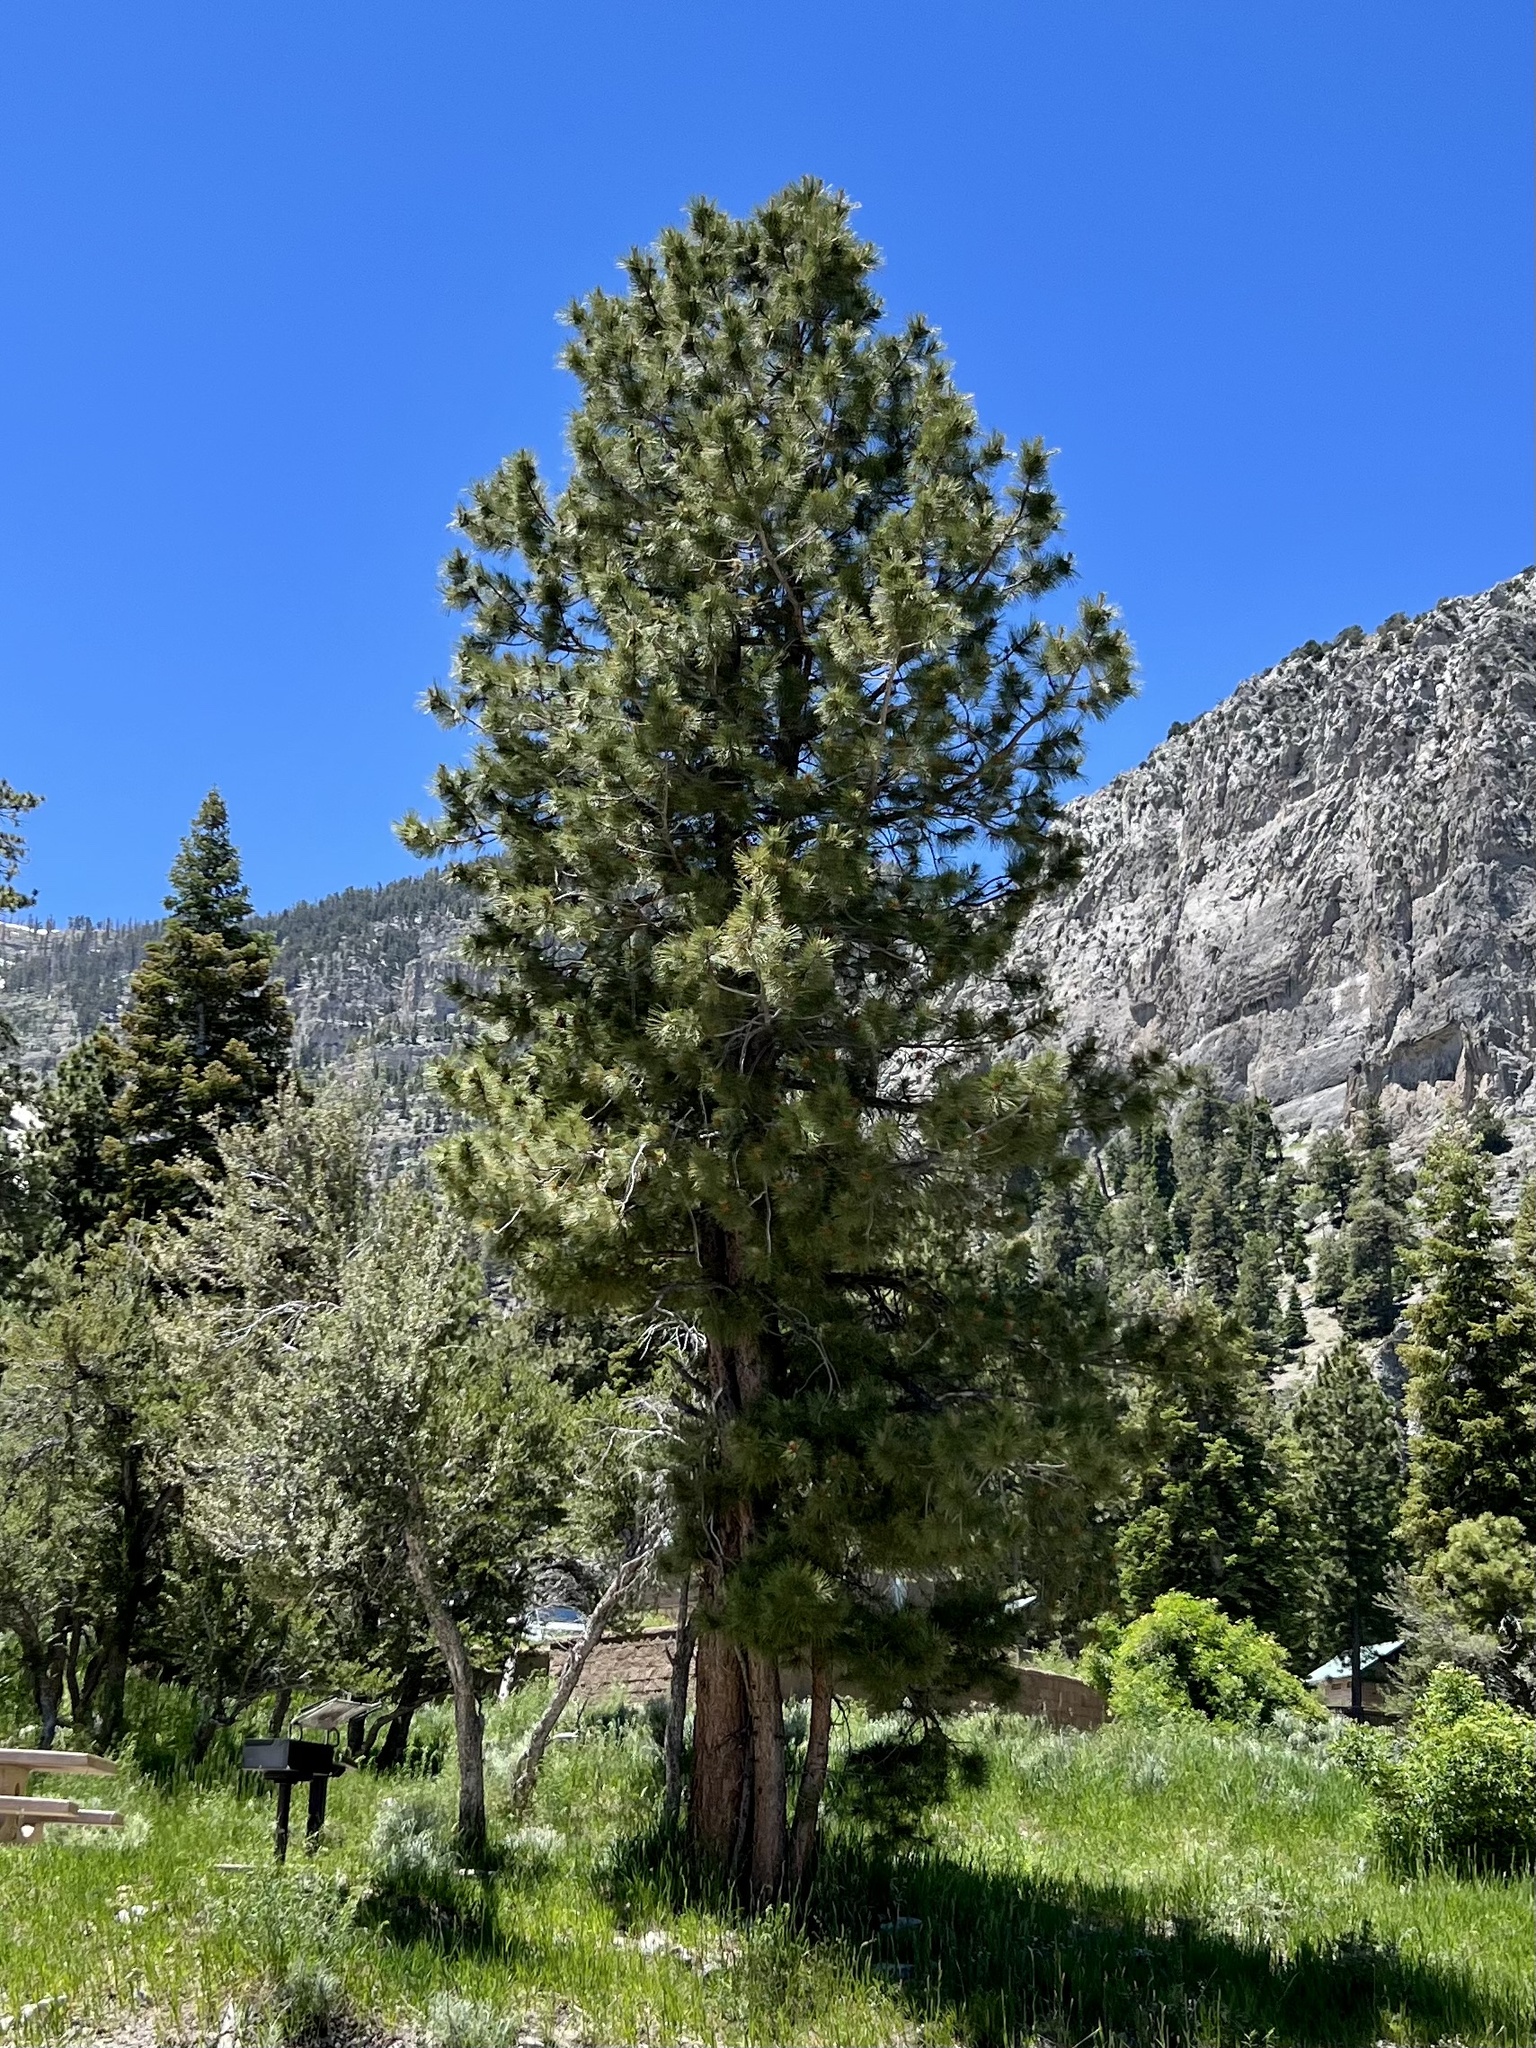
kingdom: Plantae
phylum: Tracheophyta
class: Pinopsida
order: Pinales
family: Pinaceae
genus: Pinus
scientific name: Pinus ponderosa
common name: Western yellow-pine
